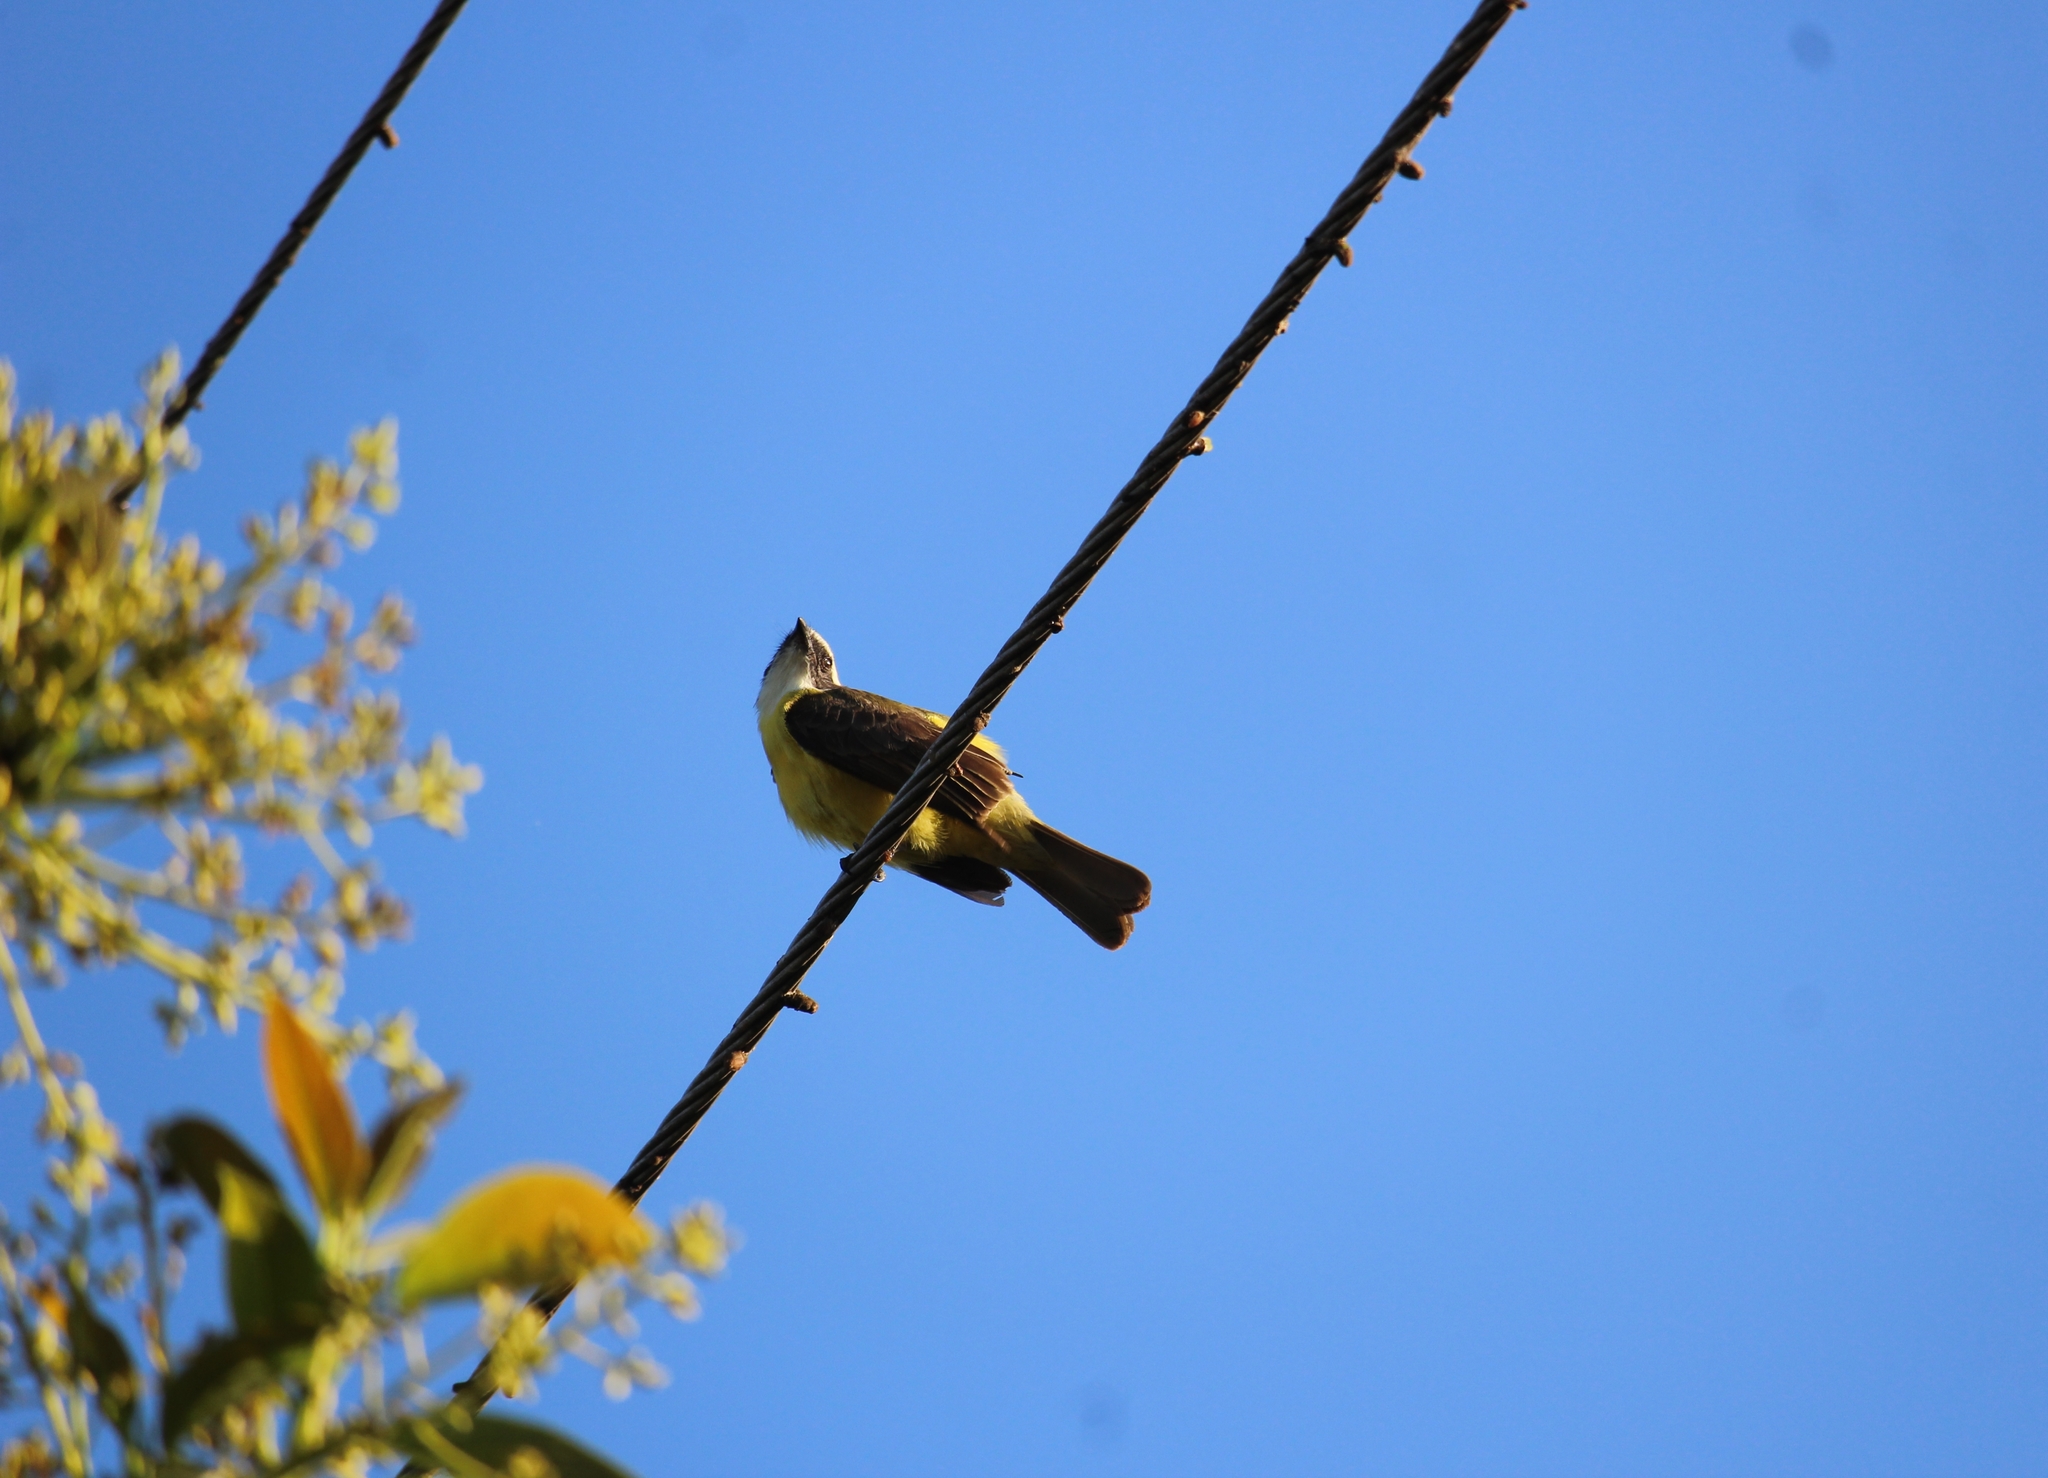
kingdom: Animalia
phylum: Chordata
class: Aves
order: Passeriformes
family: Tyrannidae
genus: Myiozetetes
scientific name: Myiozetetes similis
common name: Social flycatcher
